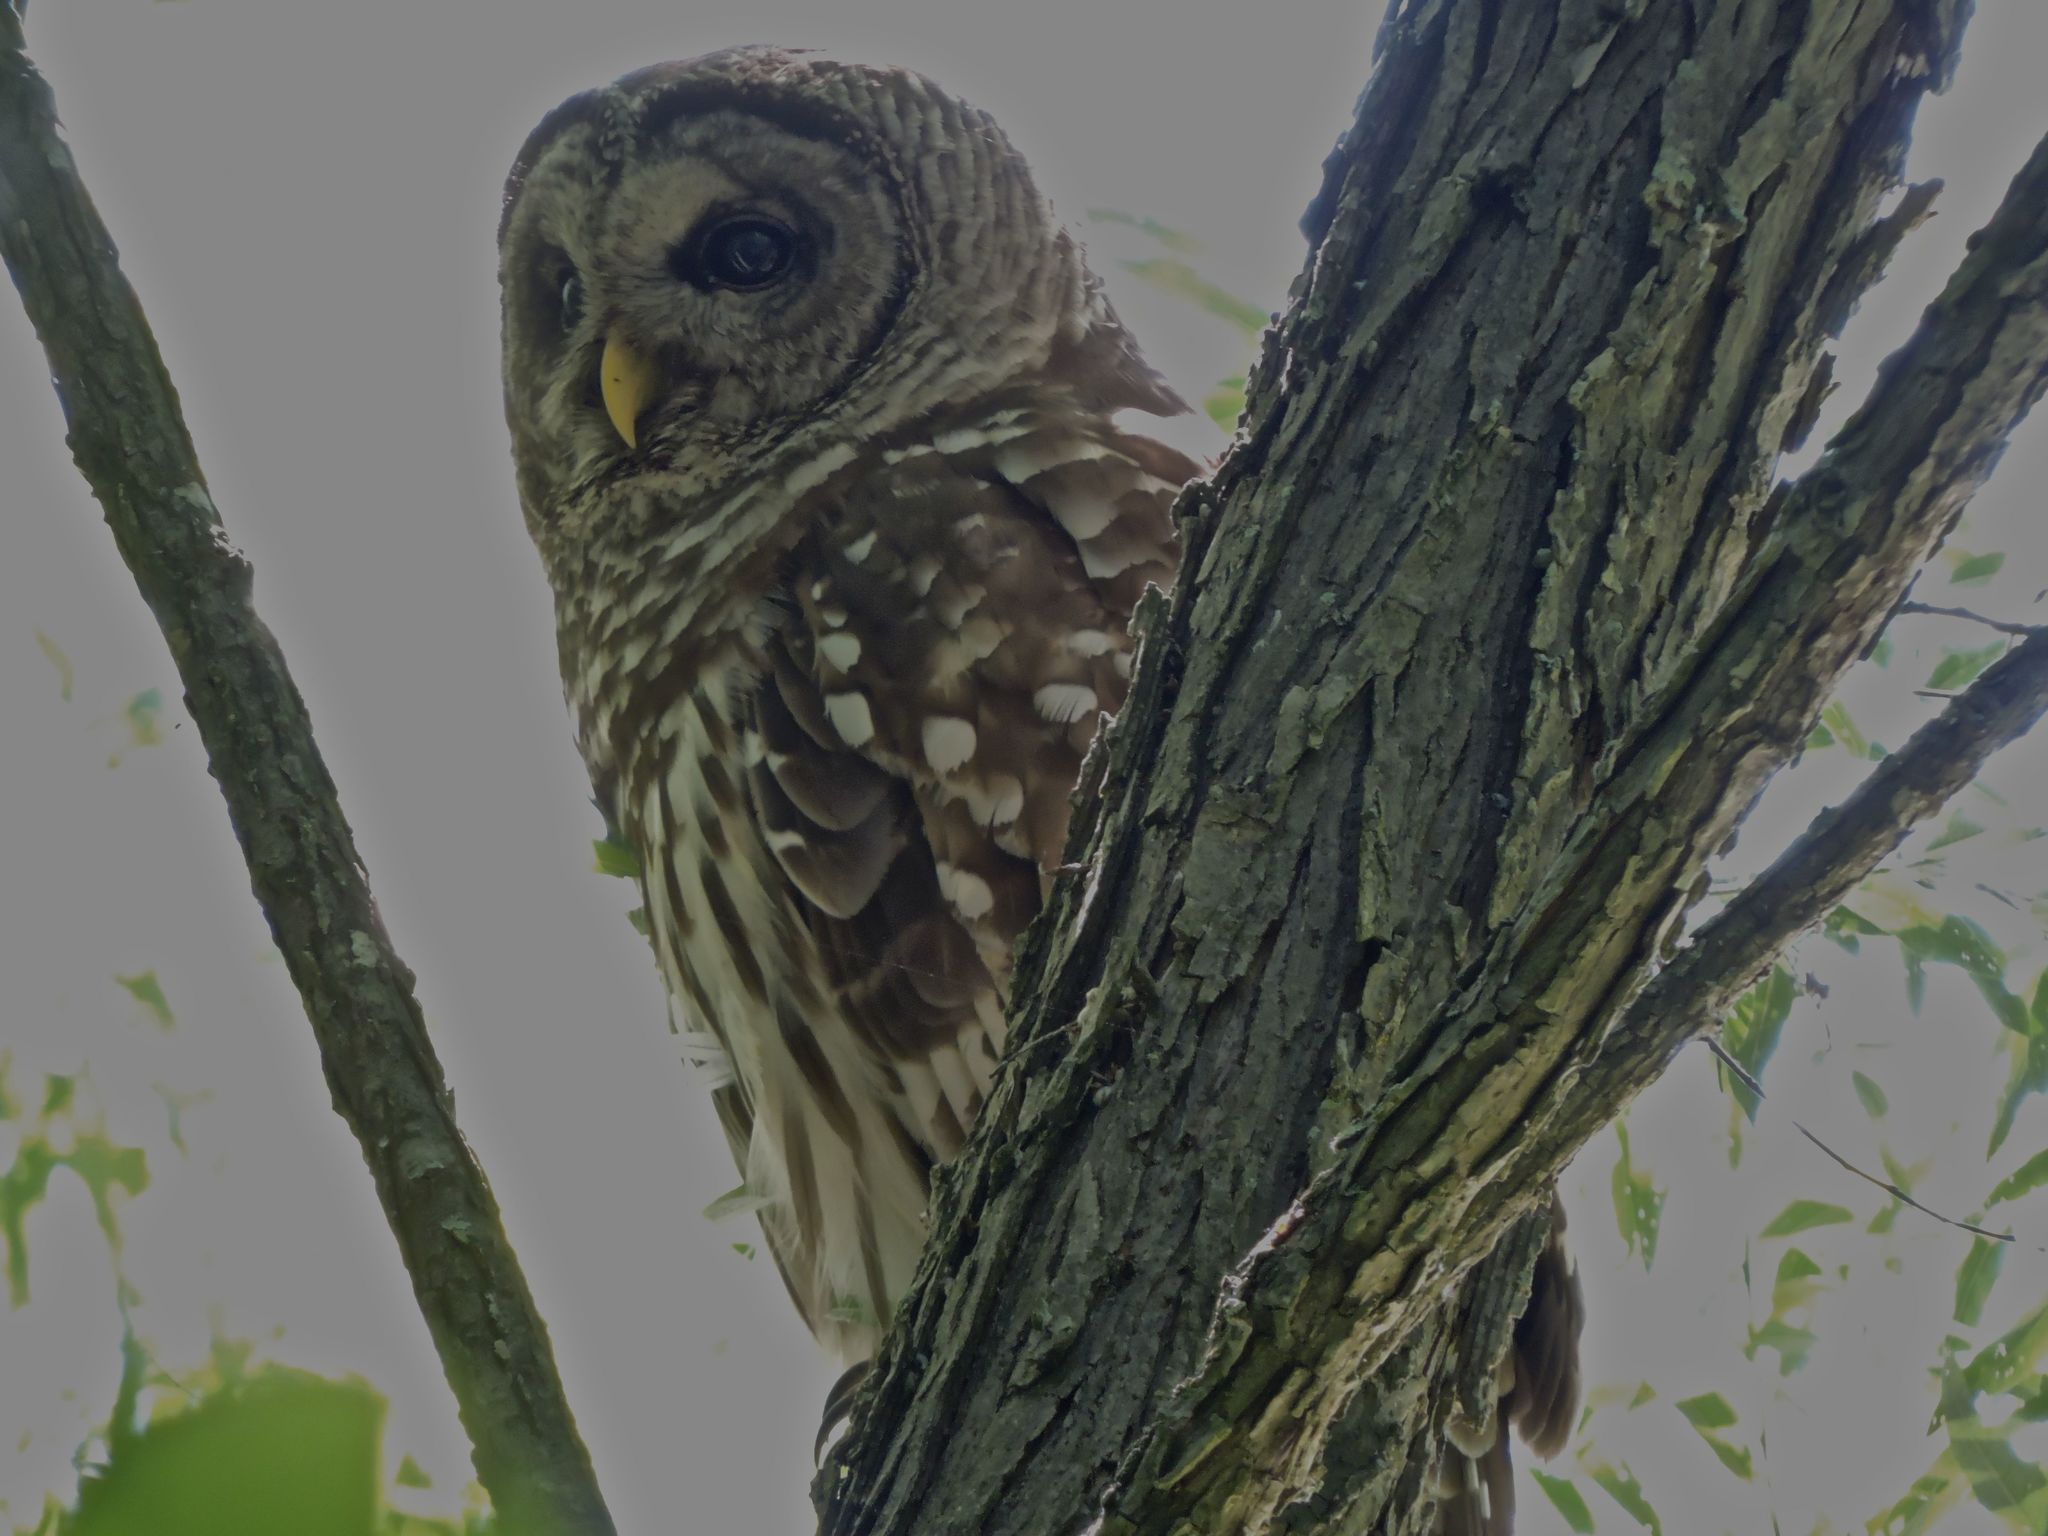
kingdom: Animalia
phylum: Chordata
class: Aves
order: Strigiformes
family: Strigidae
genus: Strix
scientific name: Strix varia
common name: Barred owl
